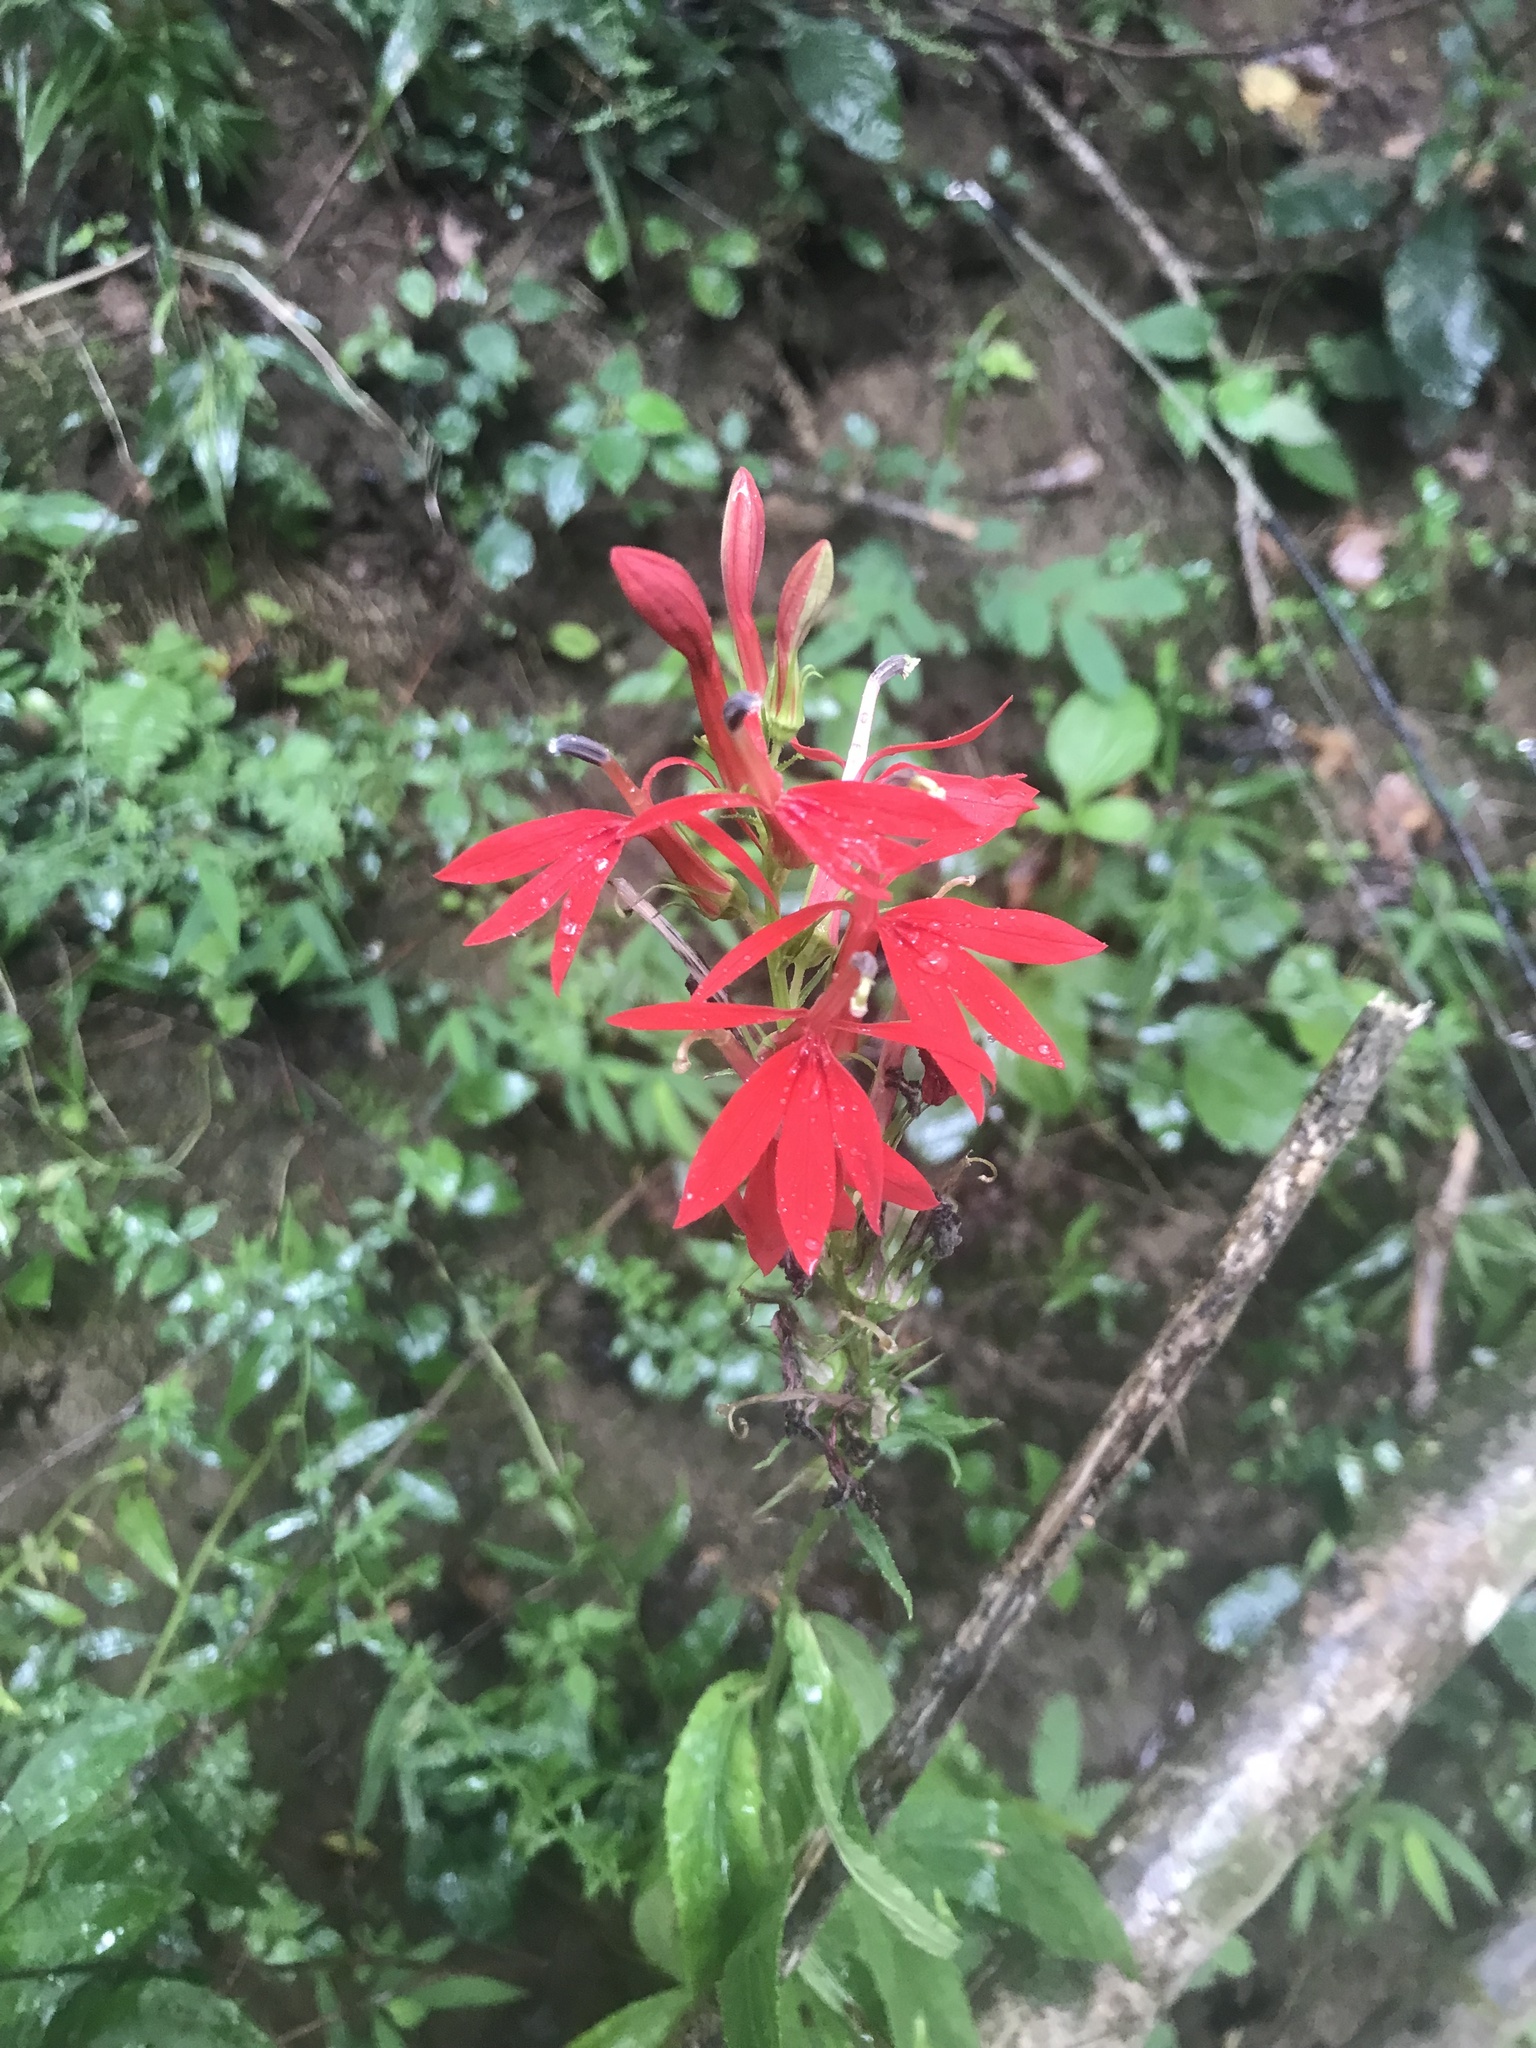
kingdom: Plantae
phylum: Tracheophyta
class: Magnoliopsida
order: Asterales
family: Campanulaceae
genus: Lobelia
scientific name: Lobelia cardinalis
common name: Cardinal flower
